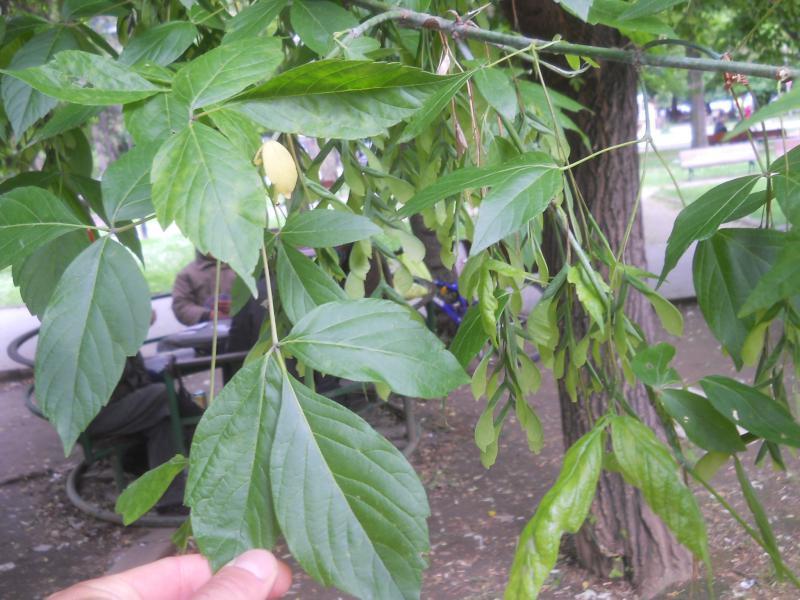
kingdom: Plantae
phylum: Tracheophyta
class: Magnoliopsida
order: Sapindales
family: Sapindaceae
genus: Acer
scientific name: Acer negundo
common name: Ashleaf maple
